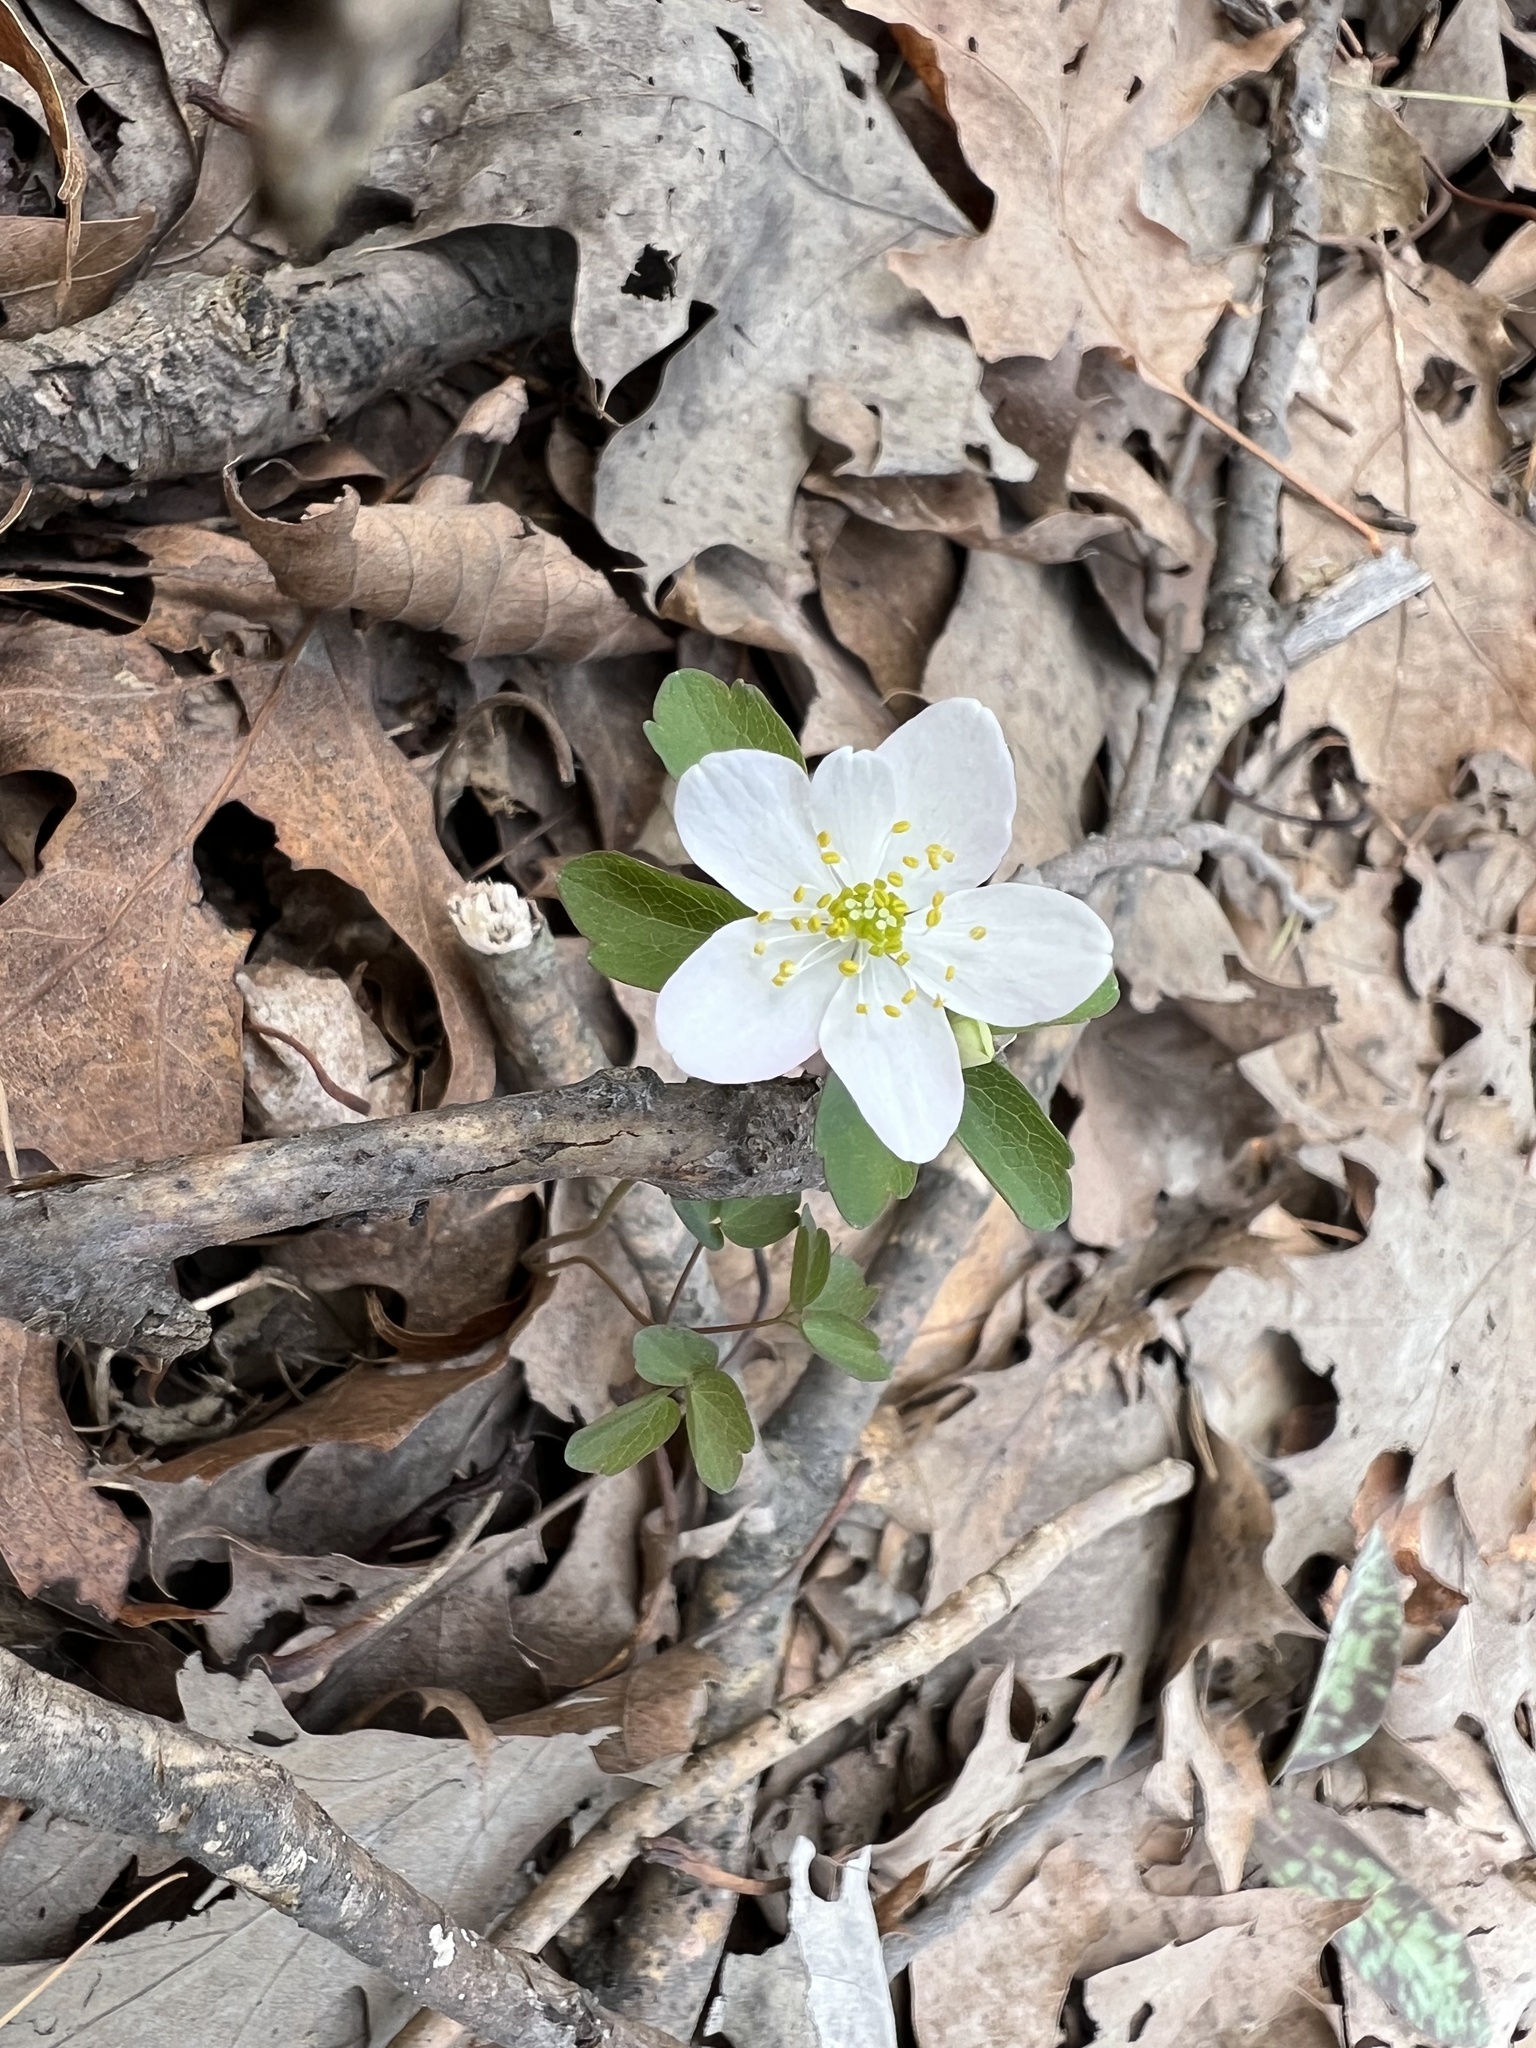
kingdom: Plantae
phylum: Tracheophyta
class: Magnoliopsida
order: Ranunculales
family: Ranunculaceae
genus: Thalictrum
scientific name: Thalictrum thalictroides
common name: Rue-anemone
